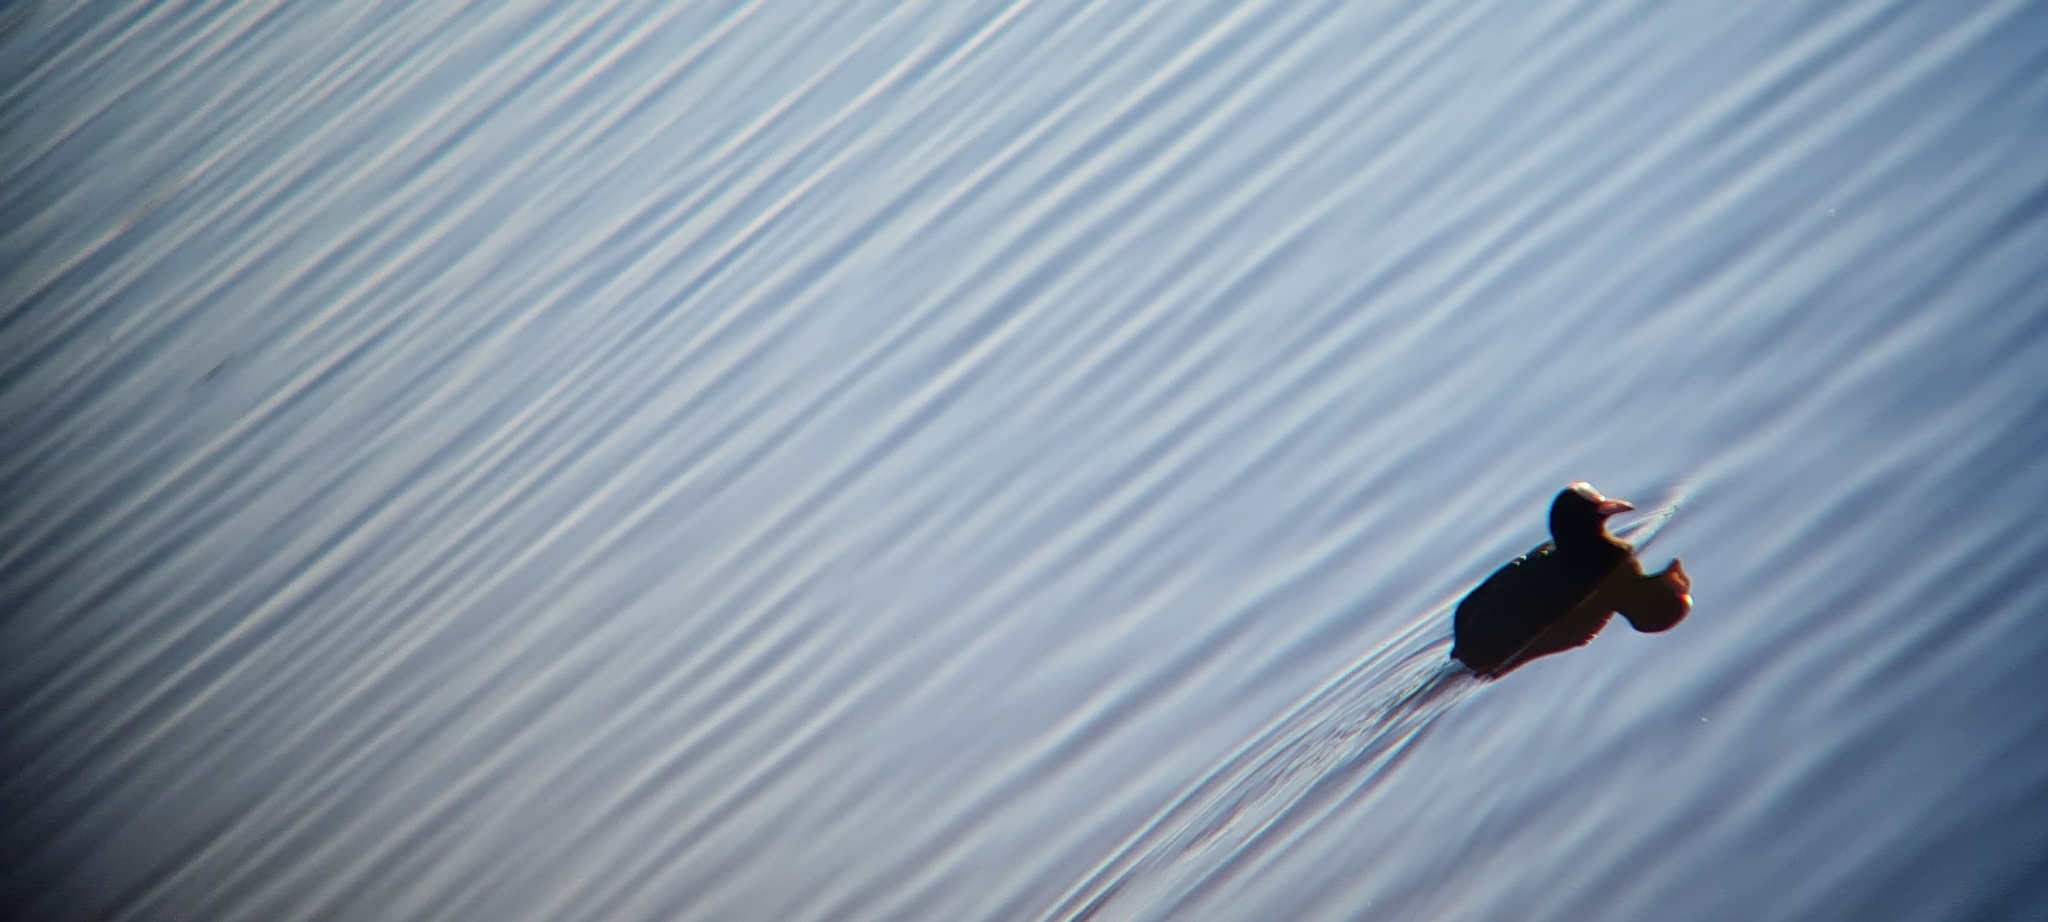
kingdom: Animalia
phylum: Chordata
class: Aves
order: Gruiformes
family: Rallidae
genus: Fulica
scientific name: Fulica atra
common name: Eurasian coot
